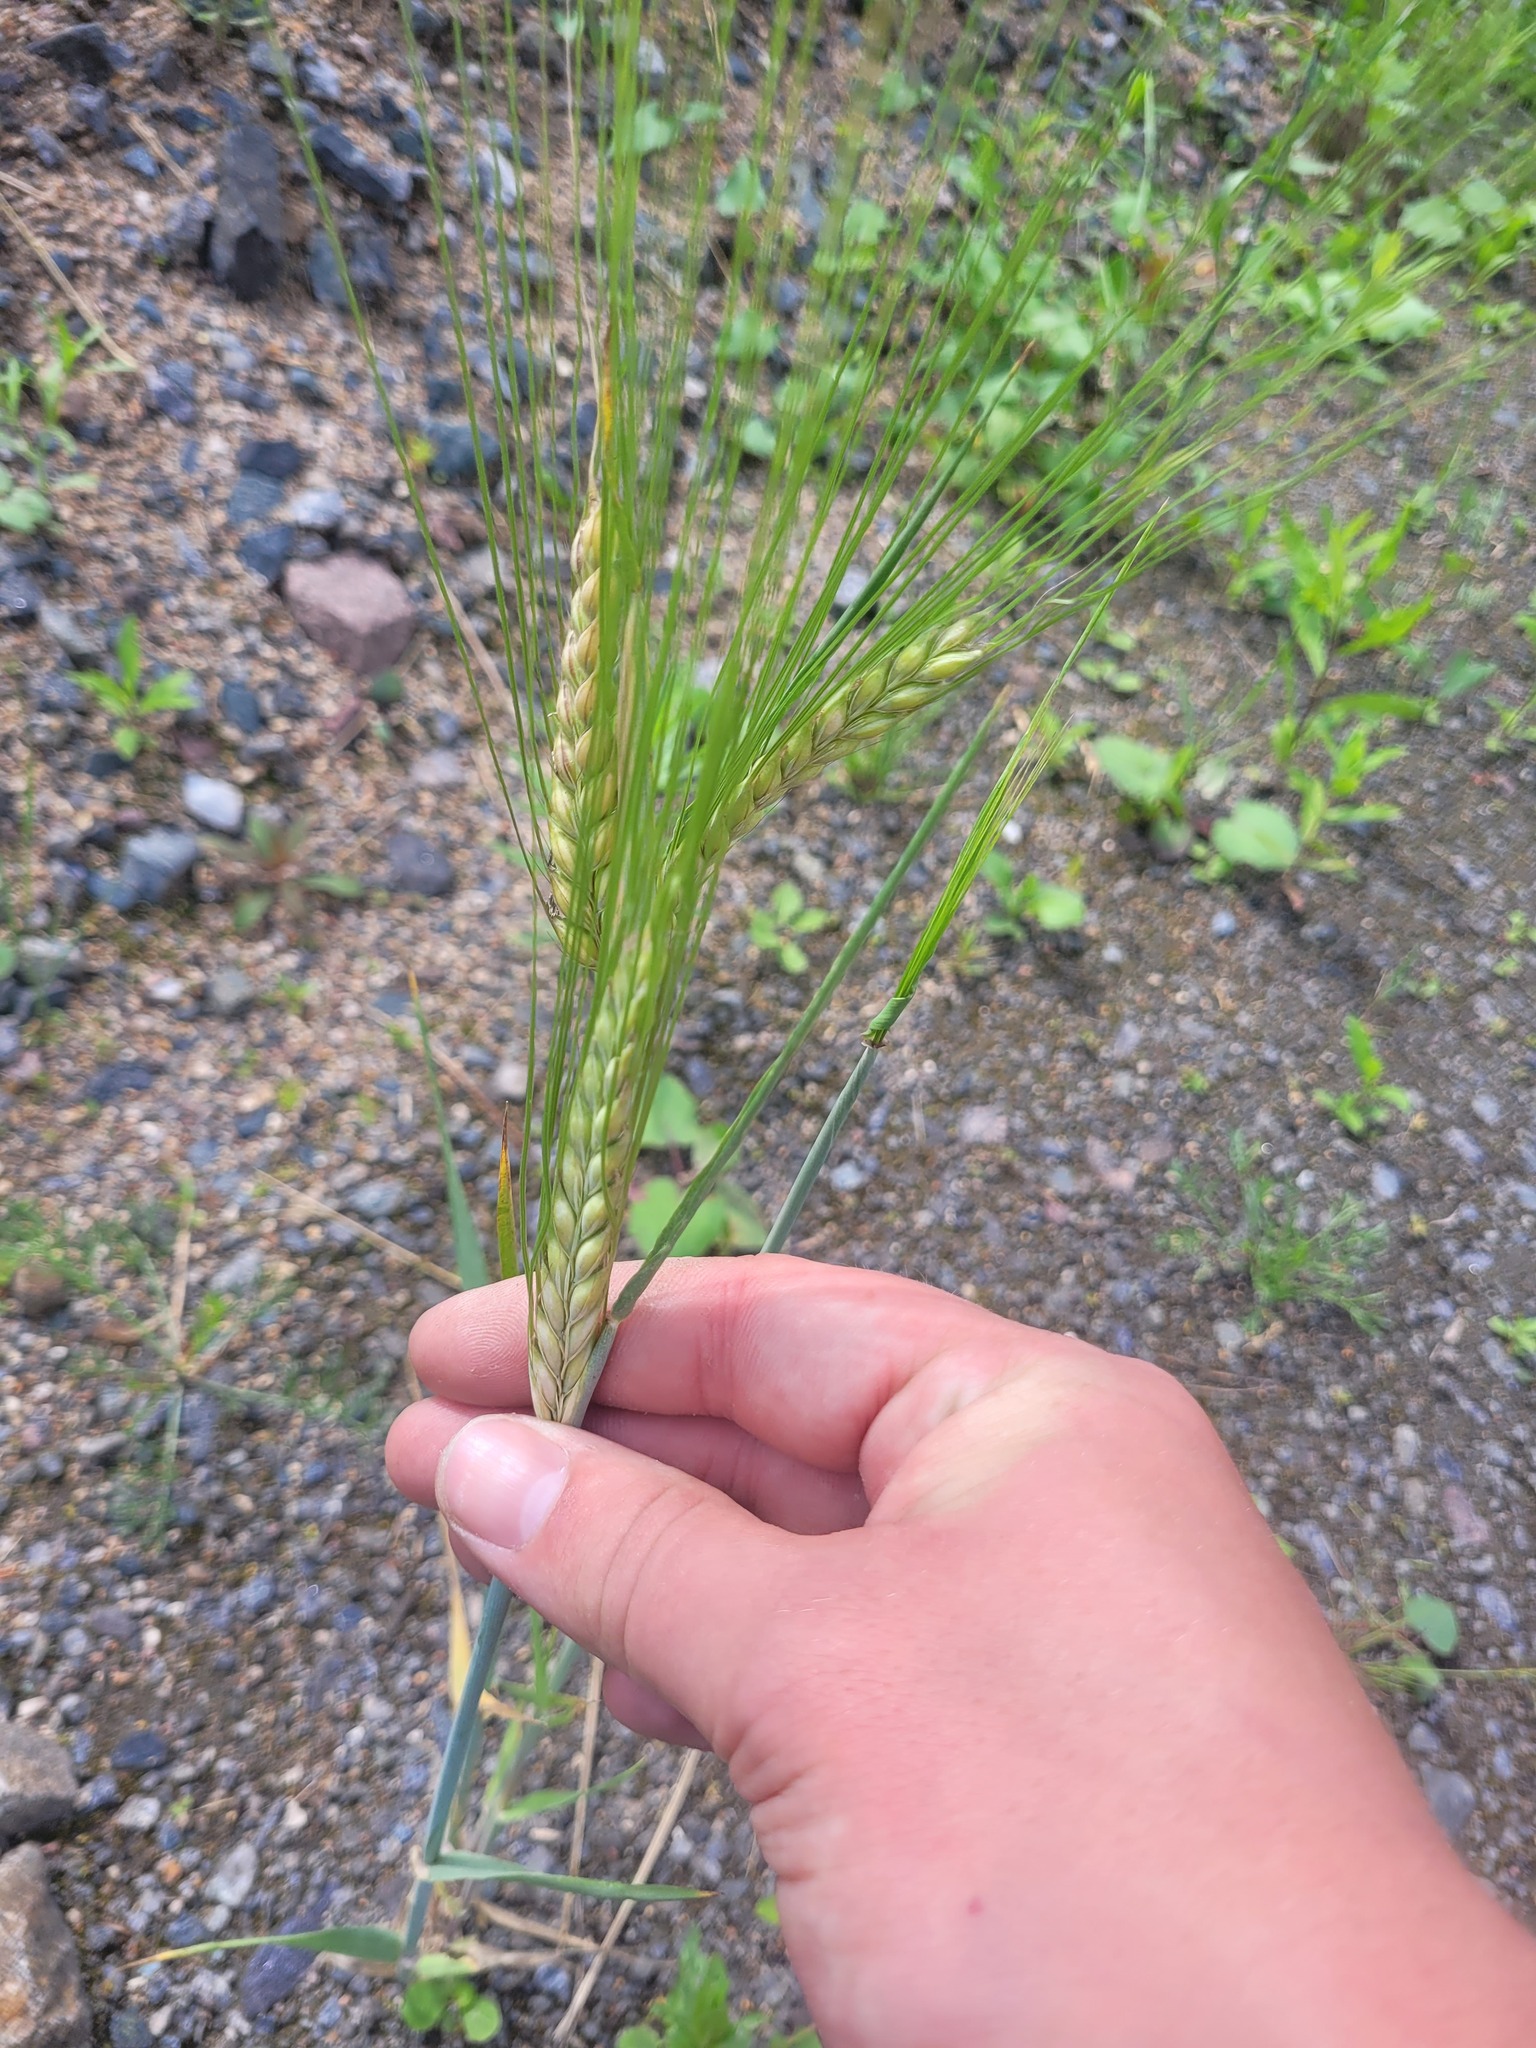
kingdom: Plantae
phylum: Tracheophyta
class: Liliopsida
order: Poales
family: Poaceae
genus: Hordeum
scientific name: Hordeum vulgare
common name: Common barley
